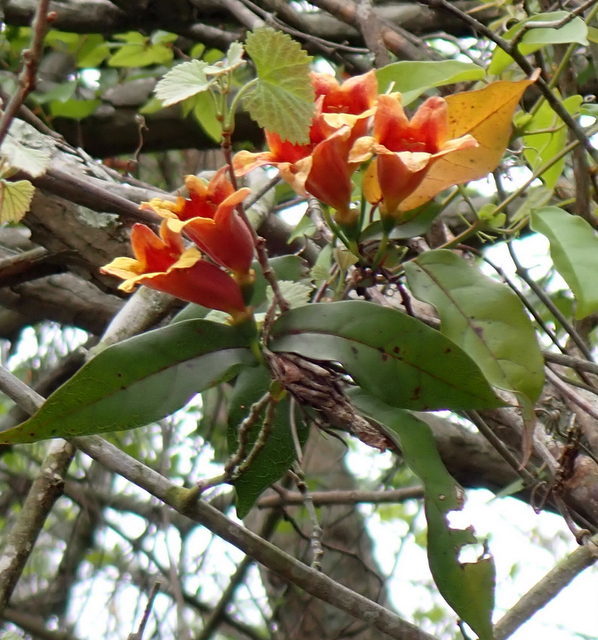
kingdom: Plantae
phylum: Tracheophyta
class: Magnoliopsida
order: Lamiales
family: Bignoniaceae
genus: Bignonia
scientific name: Bignonia capreolata
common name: Crossvine
